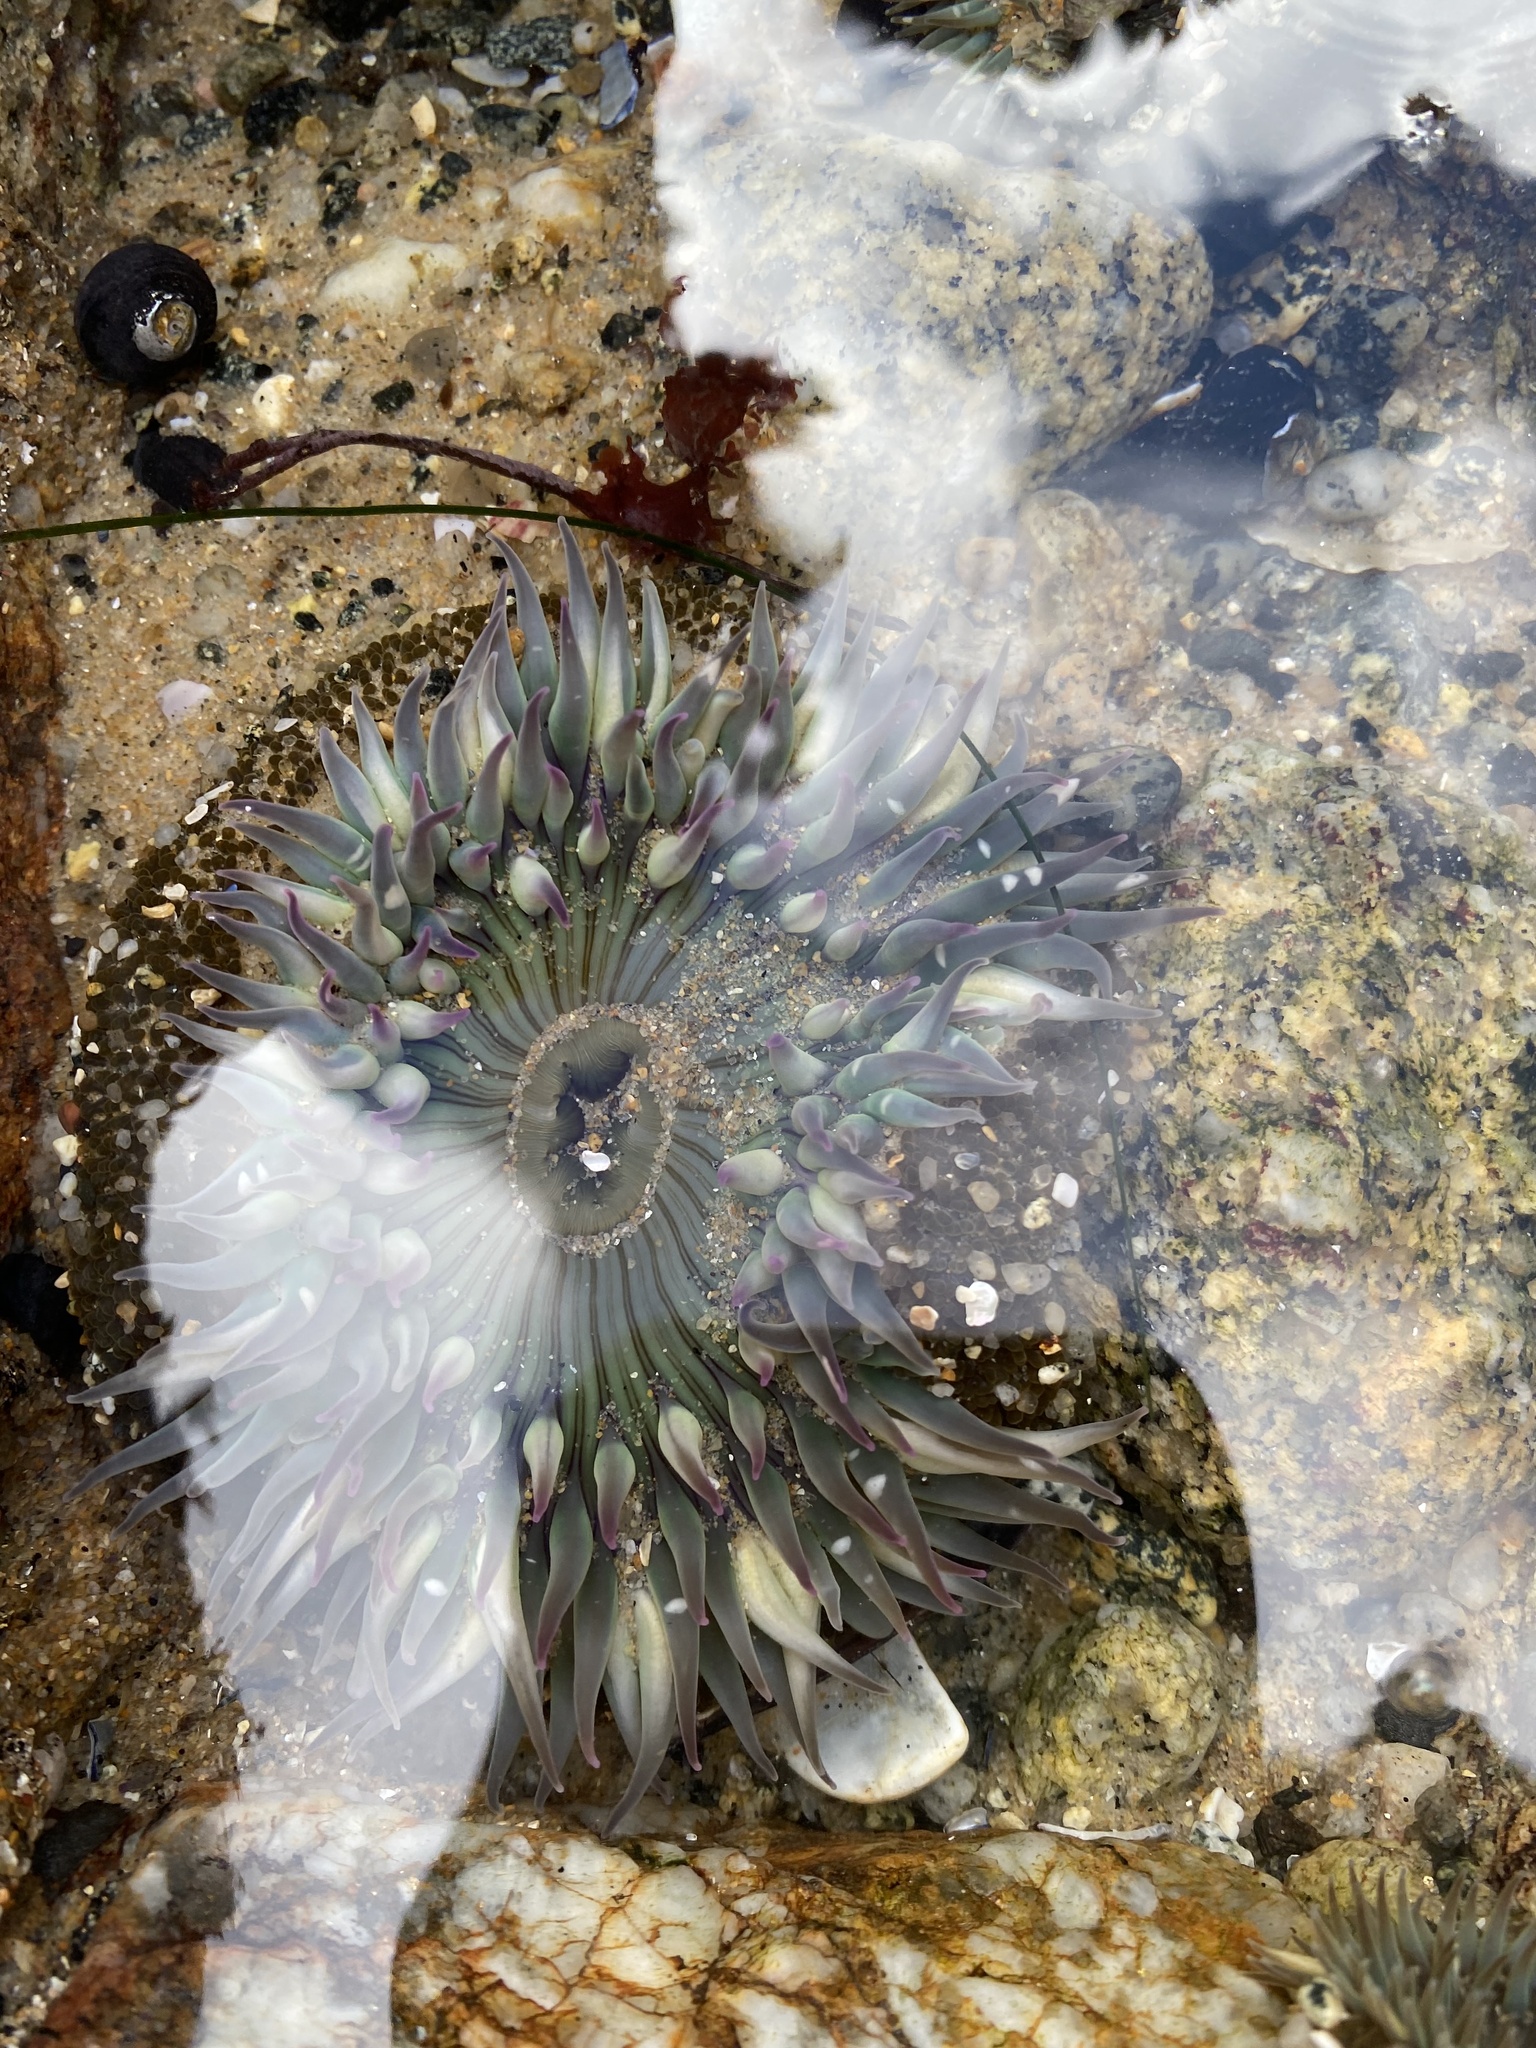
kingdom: Animalia
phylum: Cnidaria
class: Anthozoa
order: Actiniaria
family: Actiniidae
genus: Anthopleura
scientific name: Anthopleura sola
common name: Sun anemone
